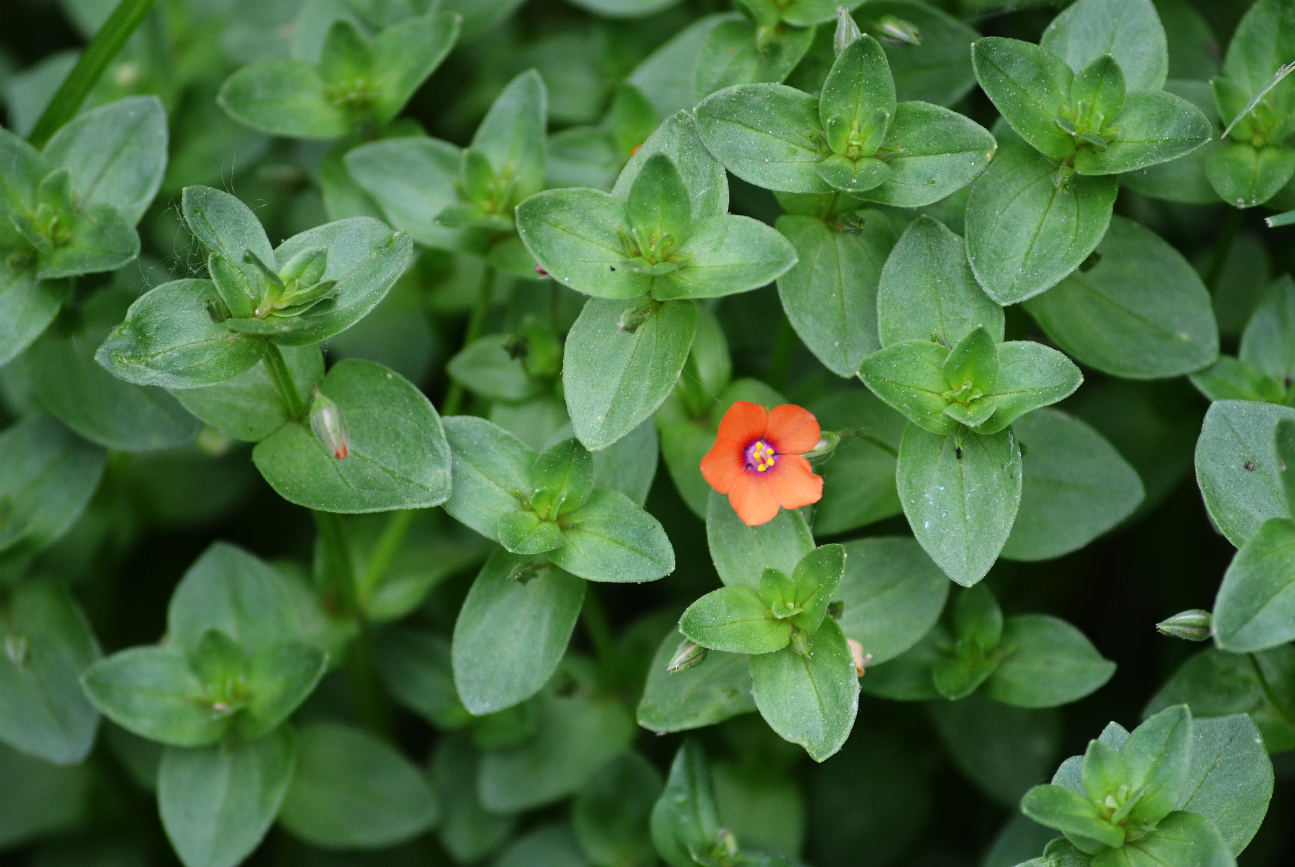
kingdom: Plantae
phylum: Tracheophyta
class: Magnoliopsida
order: Ericales
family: Primulaceae
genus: Lysimachia
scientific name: Lysimachia arvensis
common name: Scarlet pimpernel
